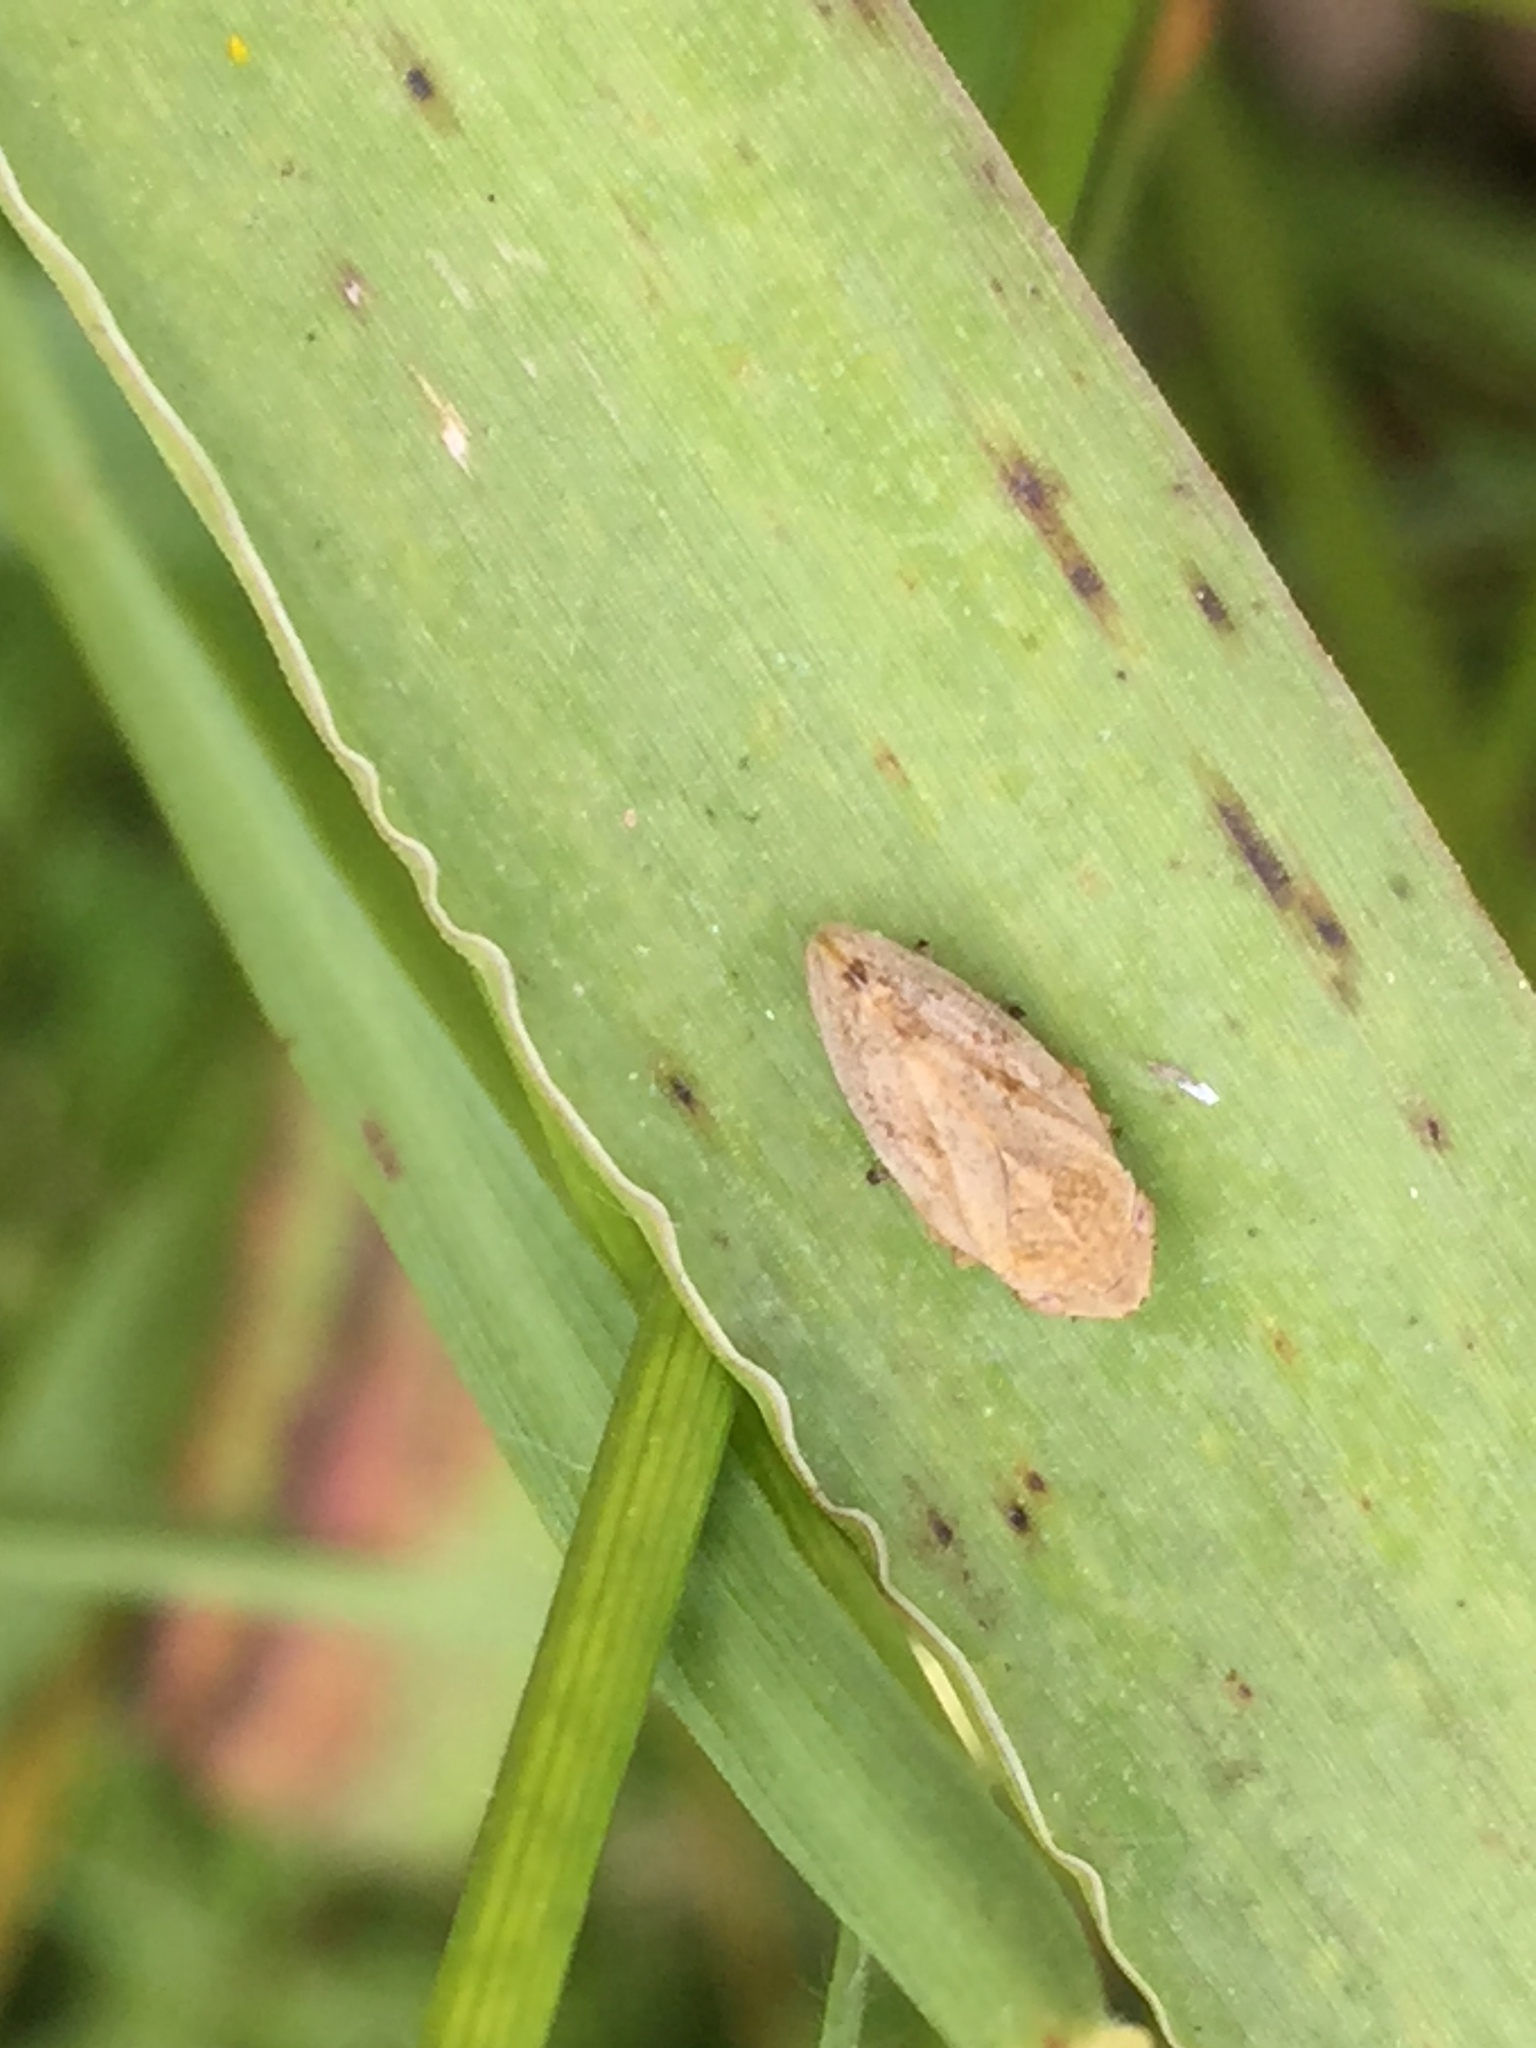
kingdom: Animalia
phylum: Arthropoda
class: Insecta
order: Hemiptera
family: Aphrophoridae
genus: Philaenus
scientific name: Philaenus spumarius
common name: Meadow spittlebug
